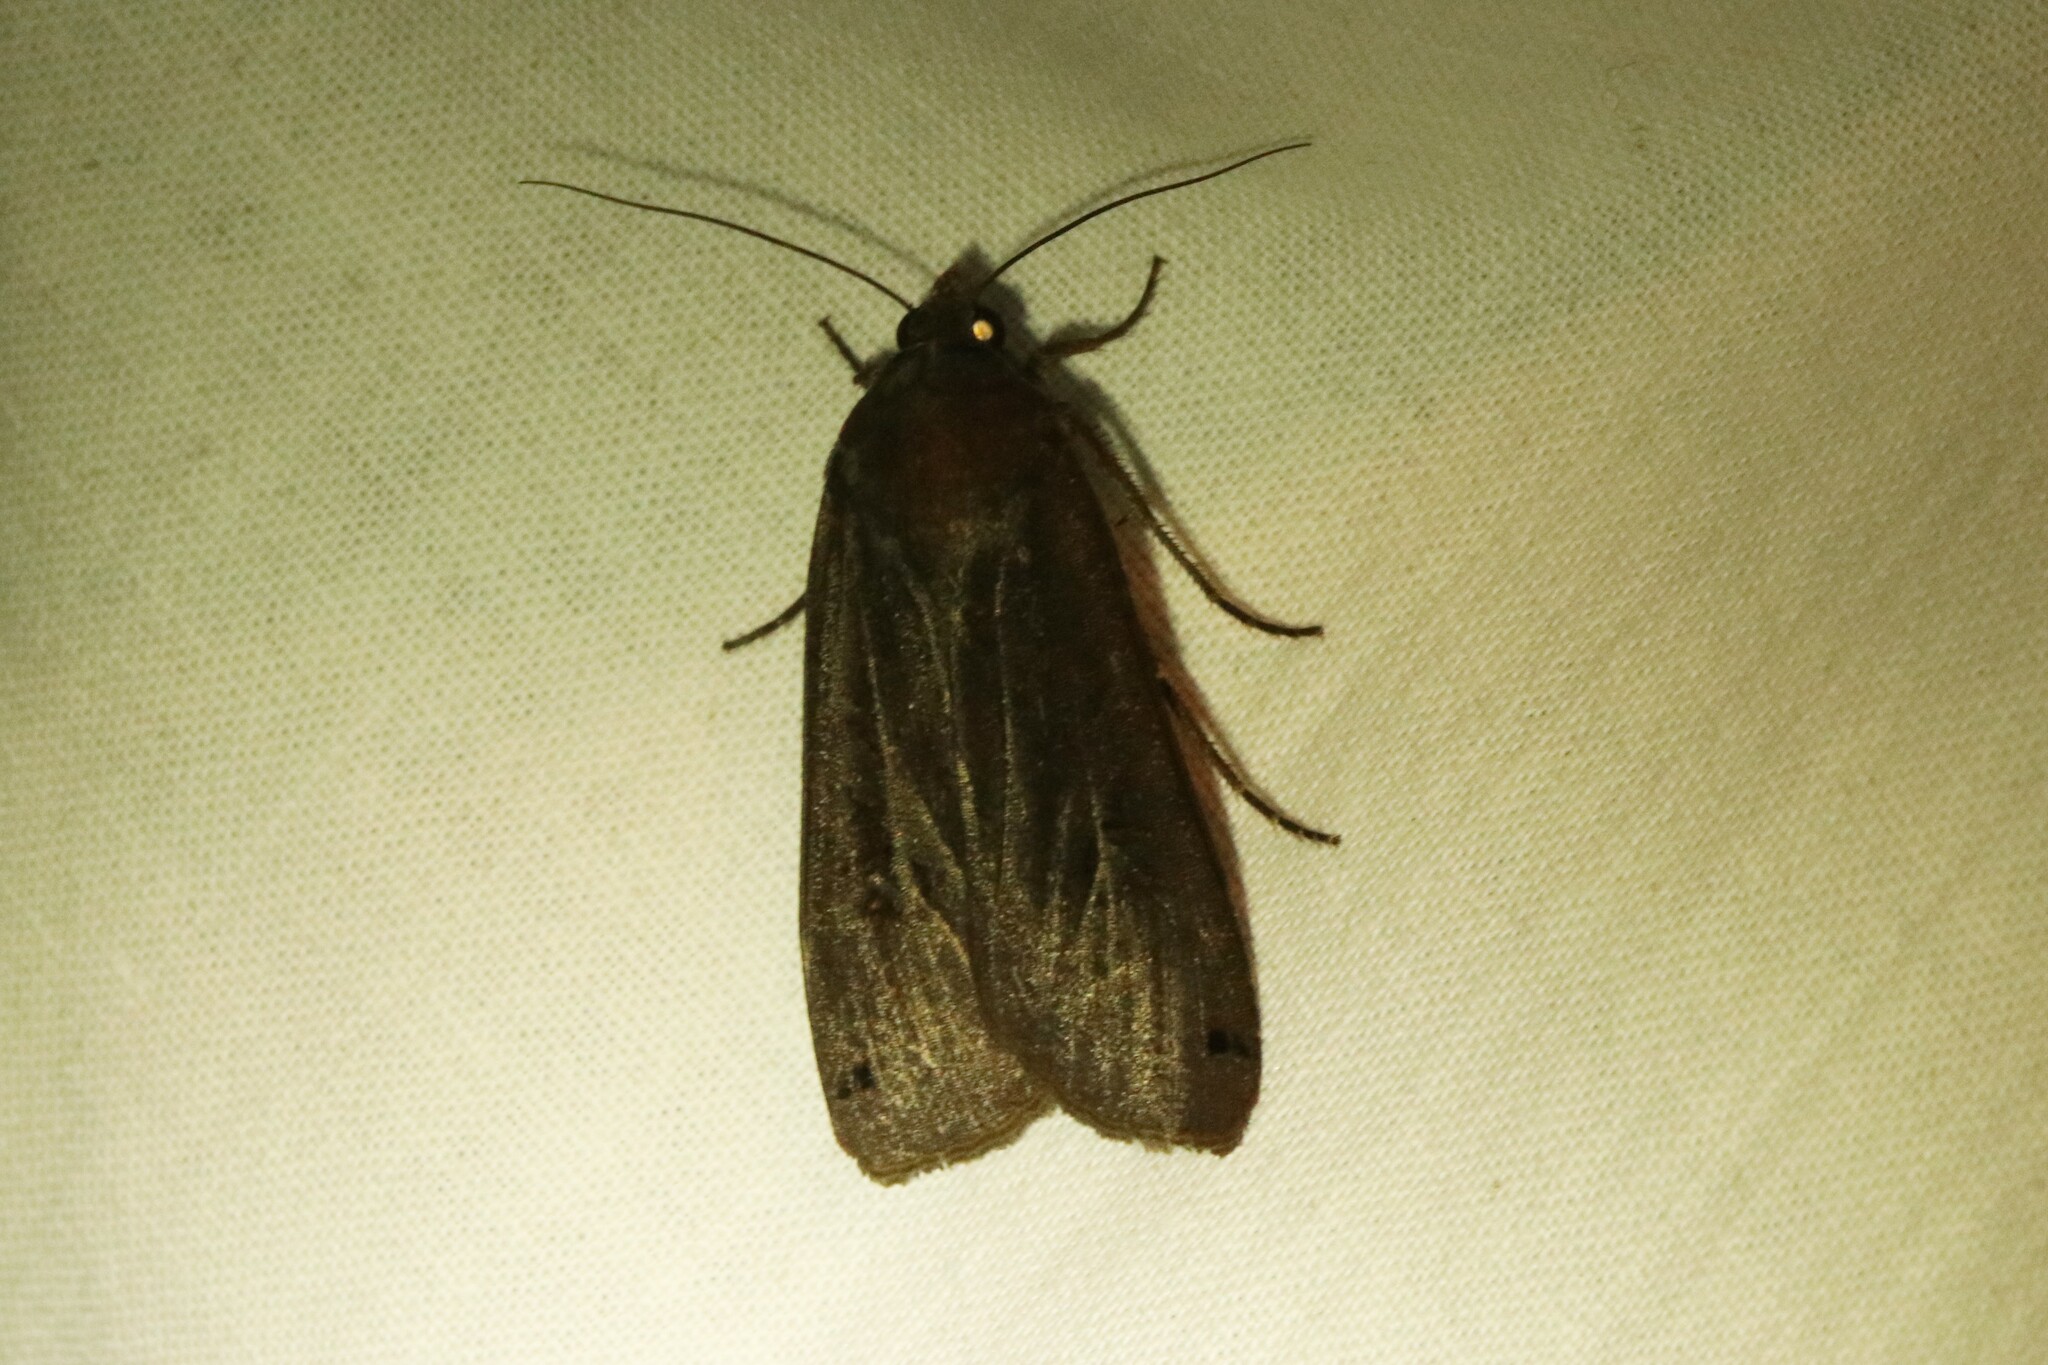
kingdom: Animalia
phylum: Arthropoda
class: Insecta
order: Lepidoptera
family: Noctuidae
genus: Noctua
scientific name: Noctua pronuba
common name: Large yellow underwing
